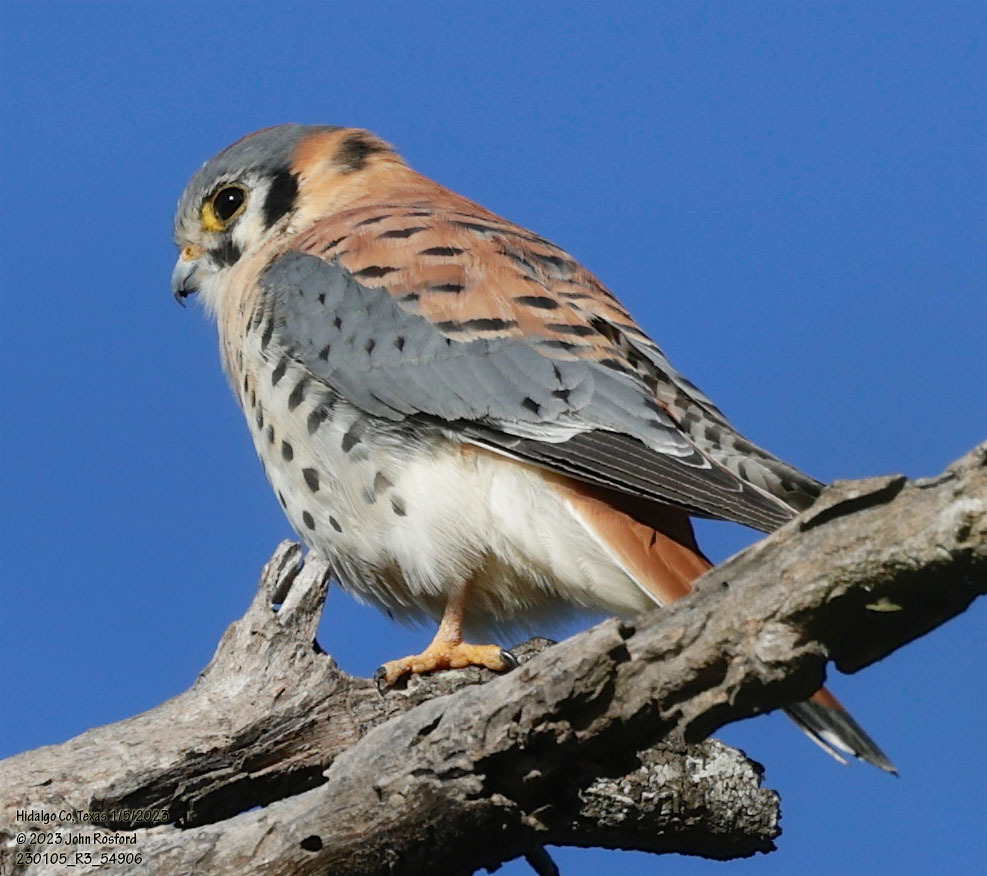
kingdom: Animalia
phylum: Chordata
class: Aves
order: Falconiformes
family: Falconidae
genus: Falco
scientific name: Falco sparverius
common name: American kestrel
